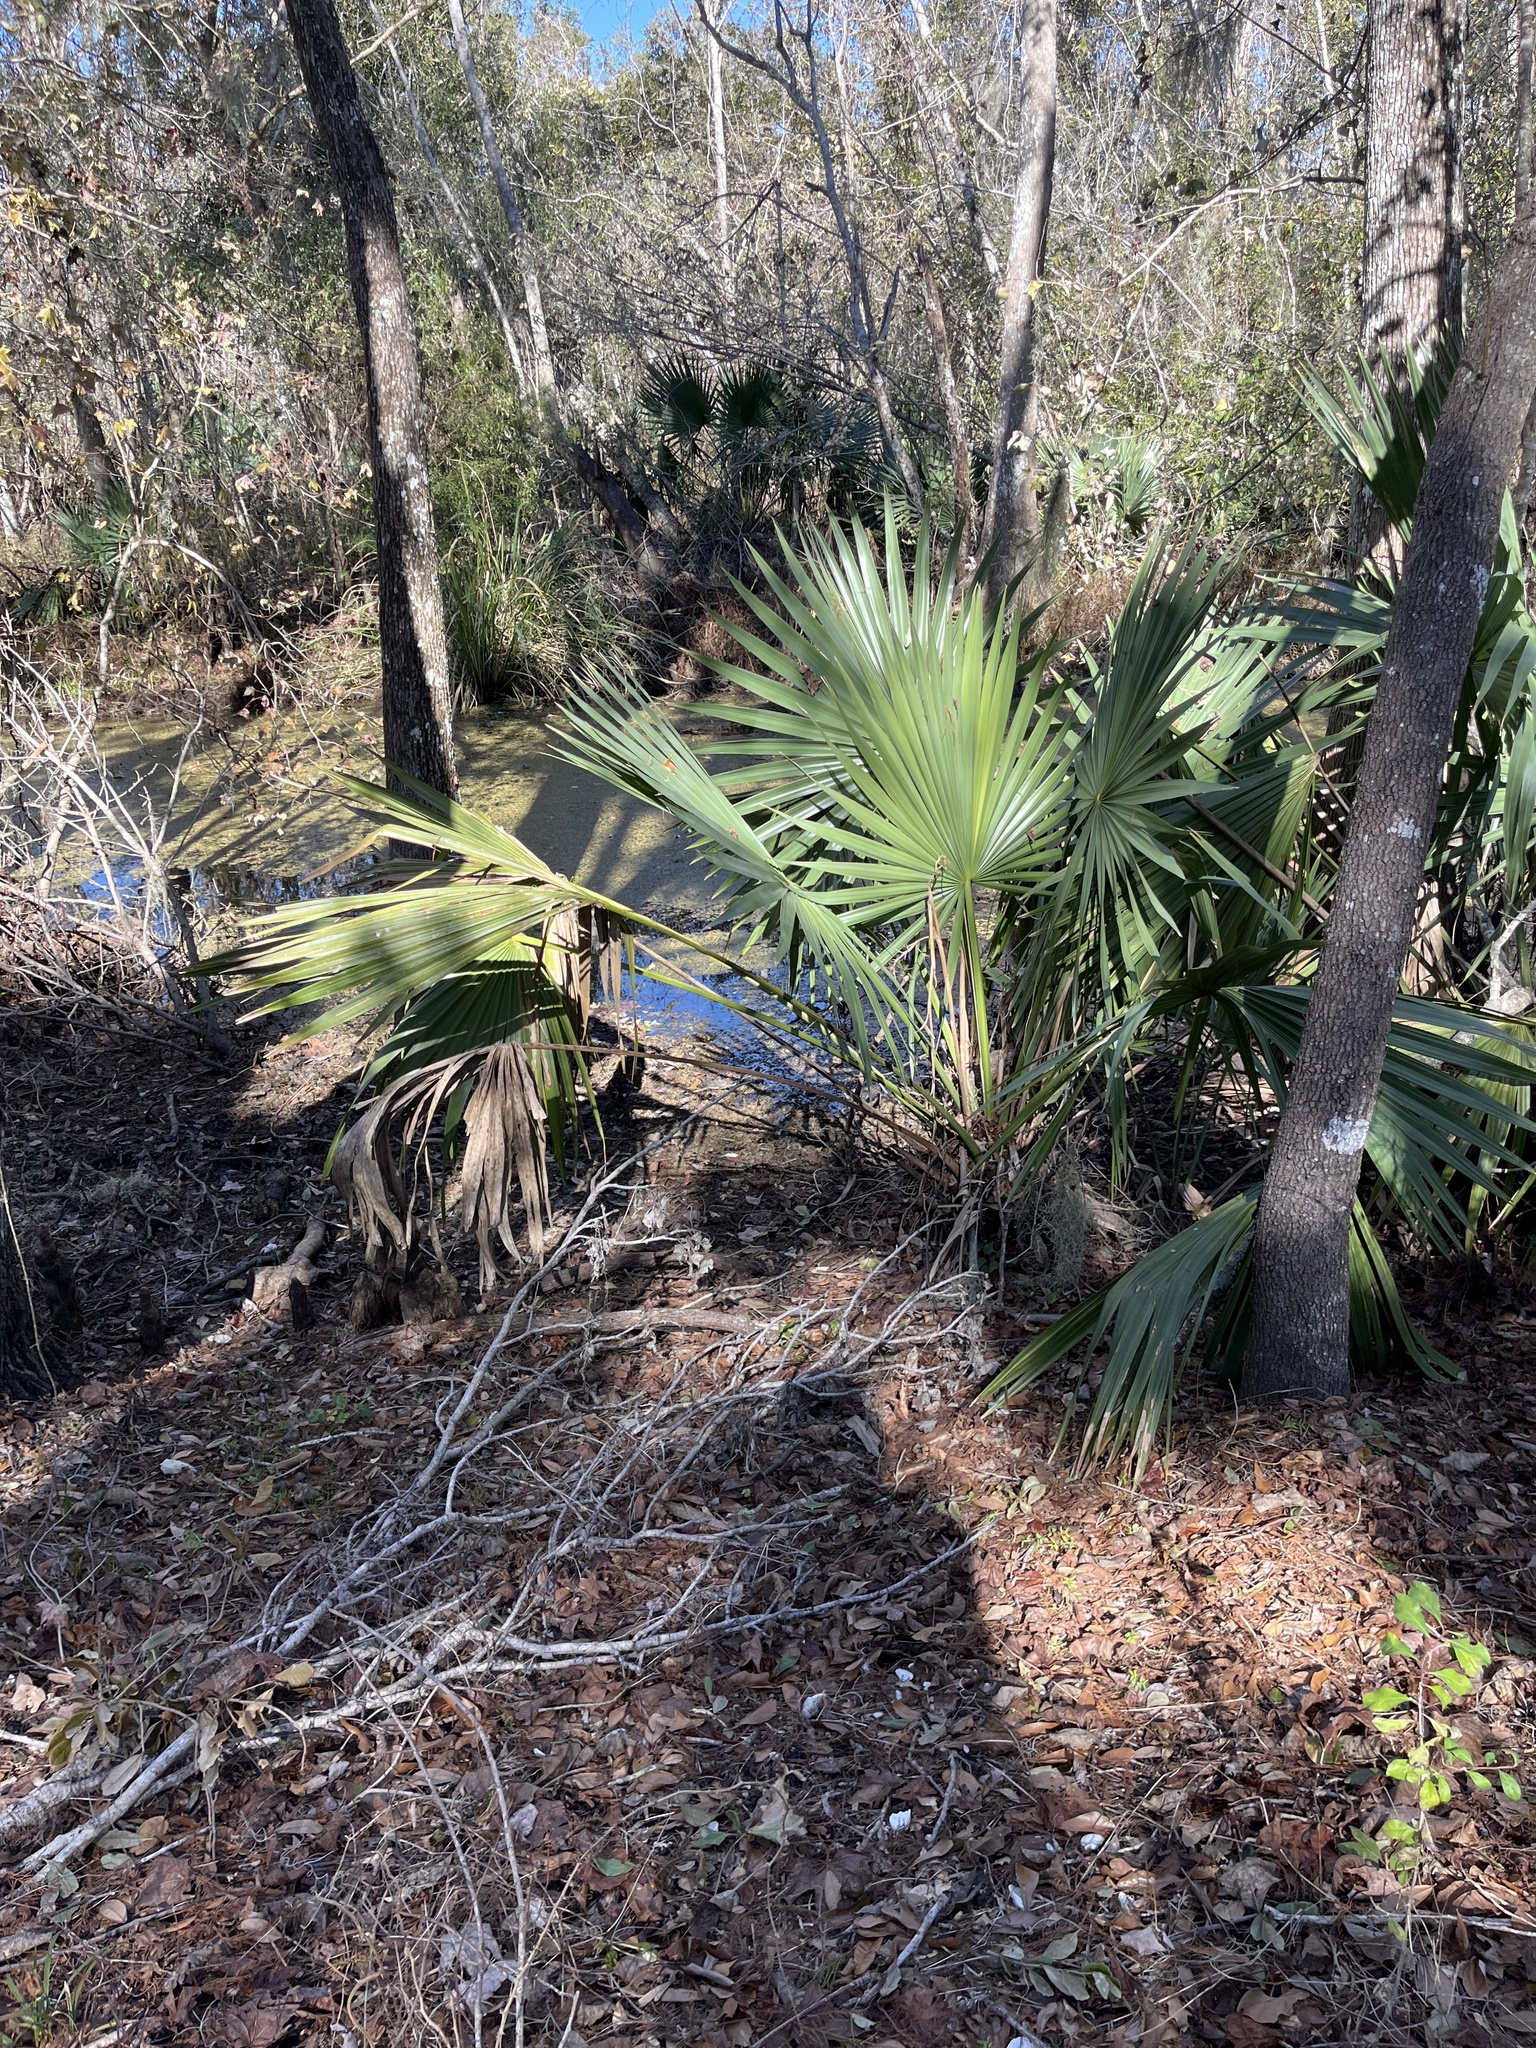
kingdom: Plantae
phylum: Tracheophyta
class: Liliopsida
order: Arecales
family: Arecaceae
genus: Sabal
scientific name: Sabal minor
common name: Dwarf palmetto
